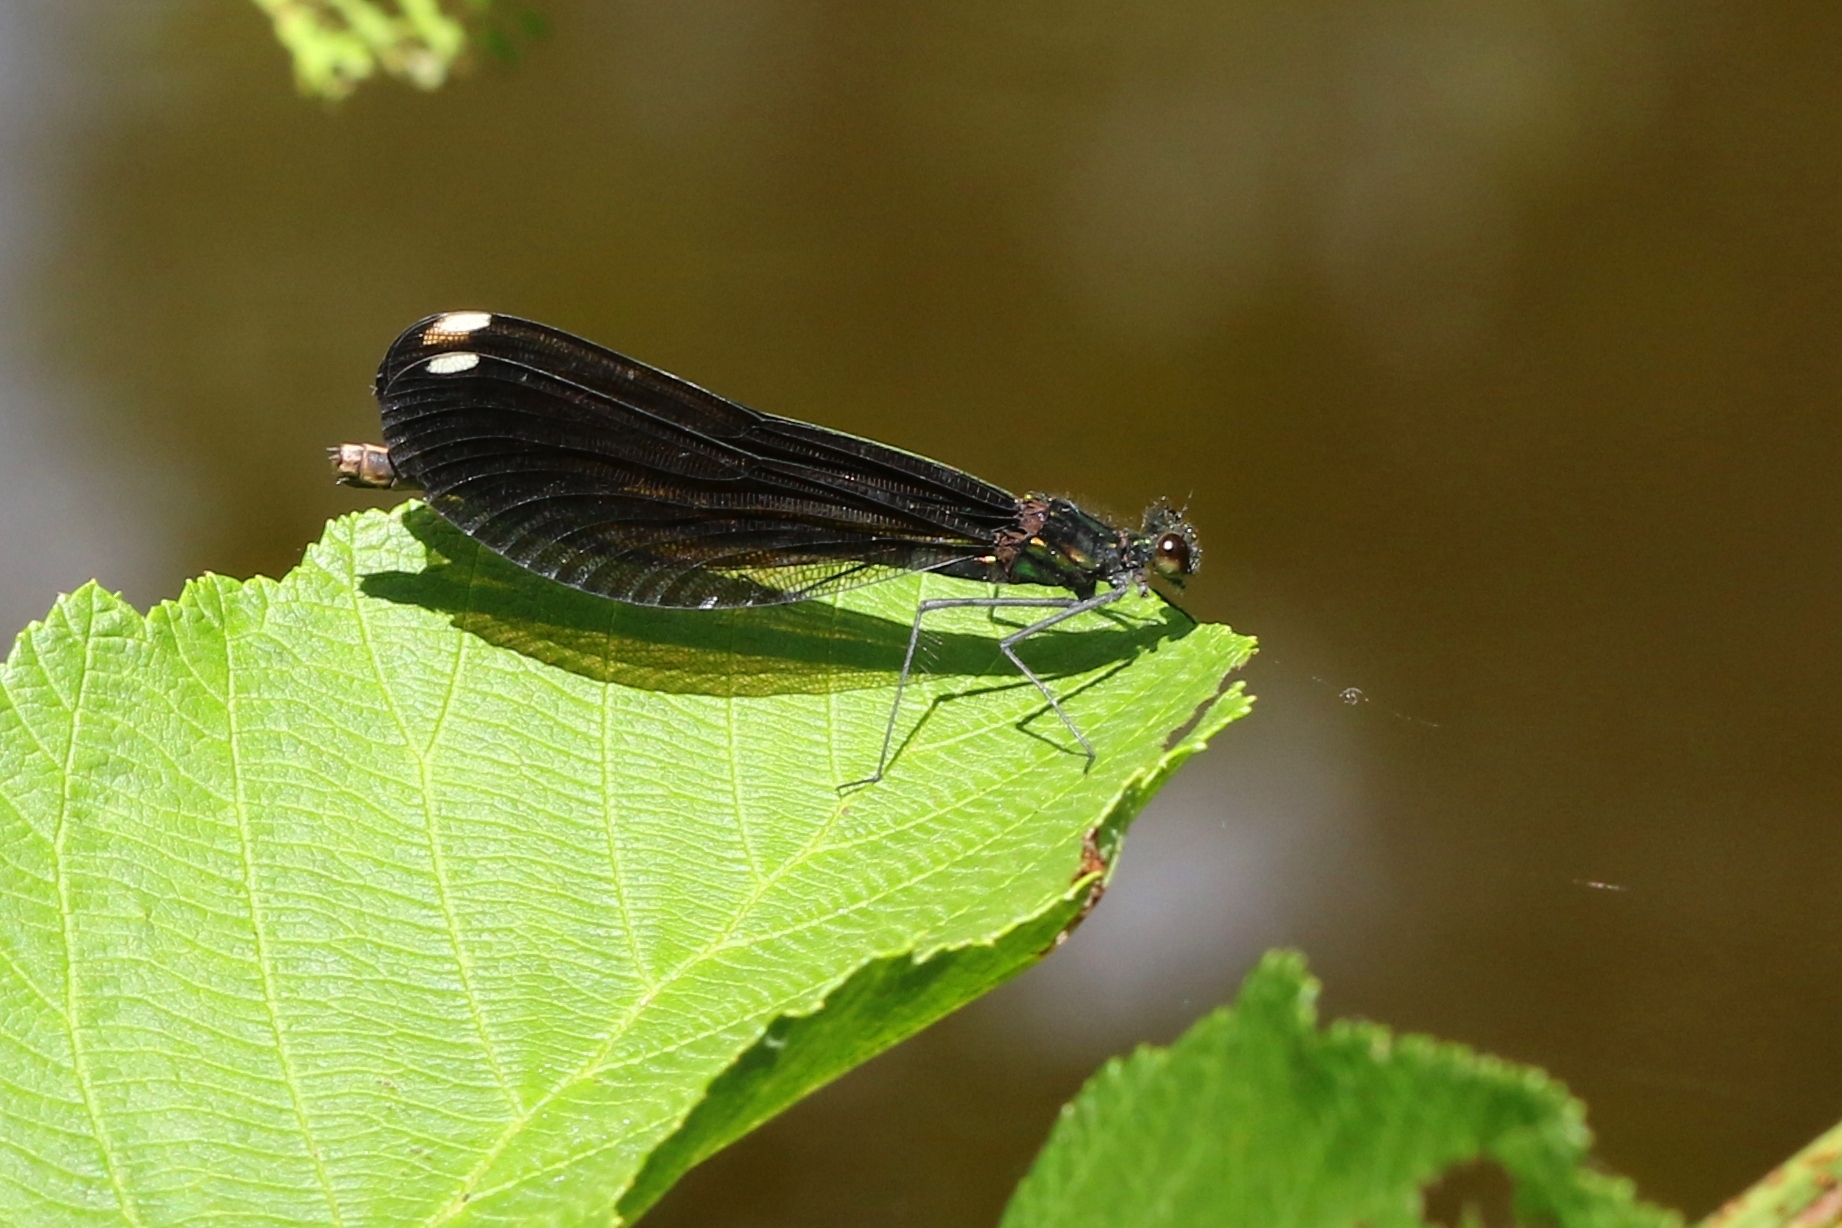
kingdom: Animalia
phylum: Arthropoda
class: Insecta
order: Odonata
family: Calopterygidae
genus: Calopteryx
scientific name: Calopteryx maculata
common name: Ebony jewelwing
